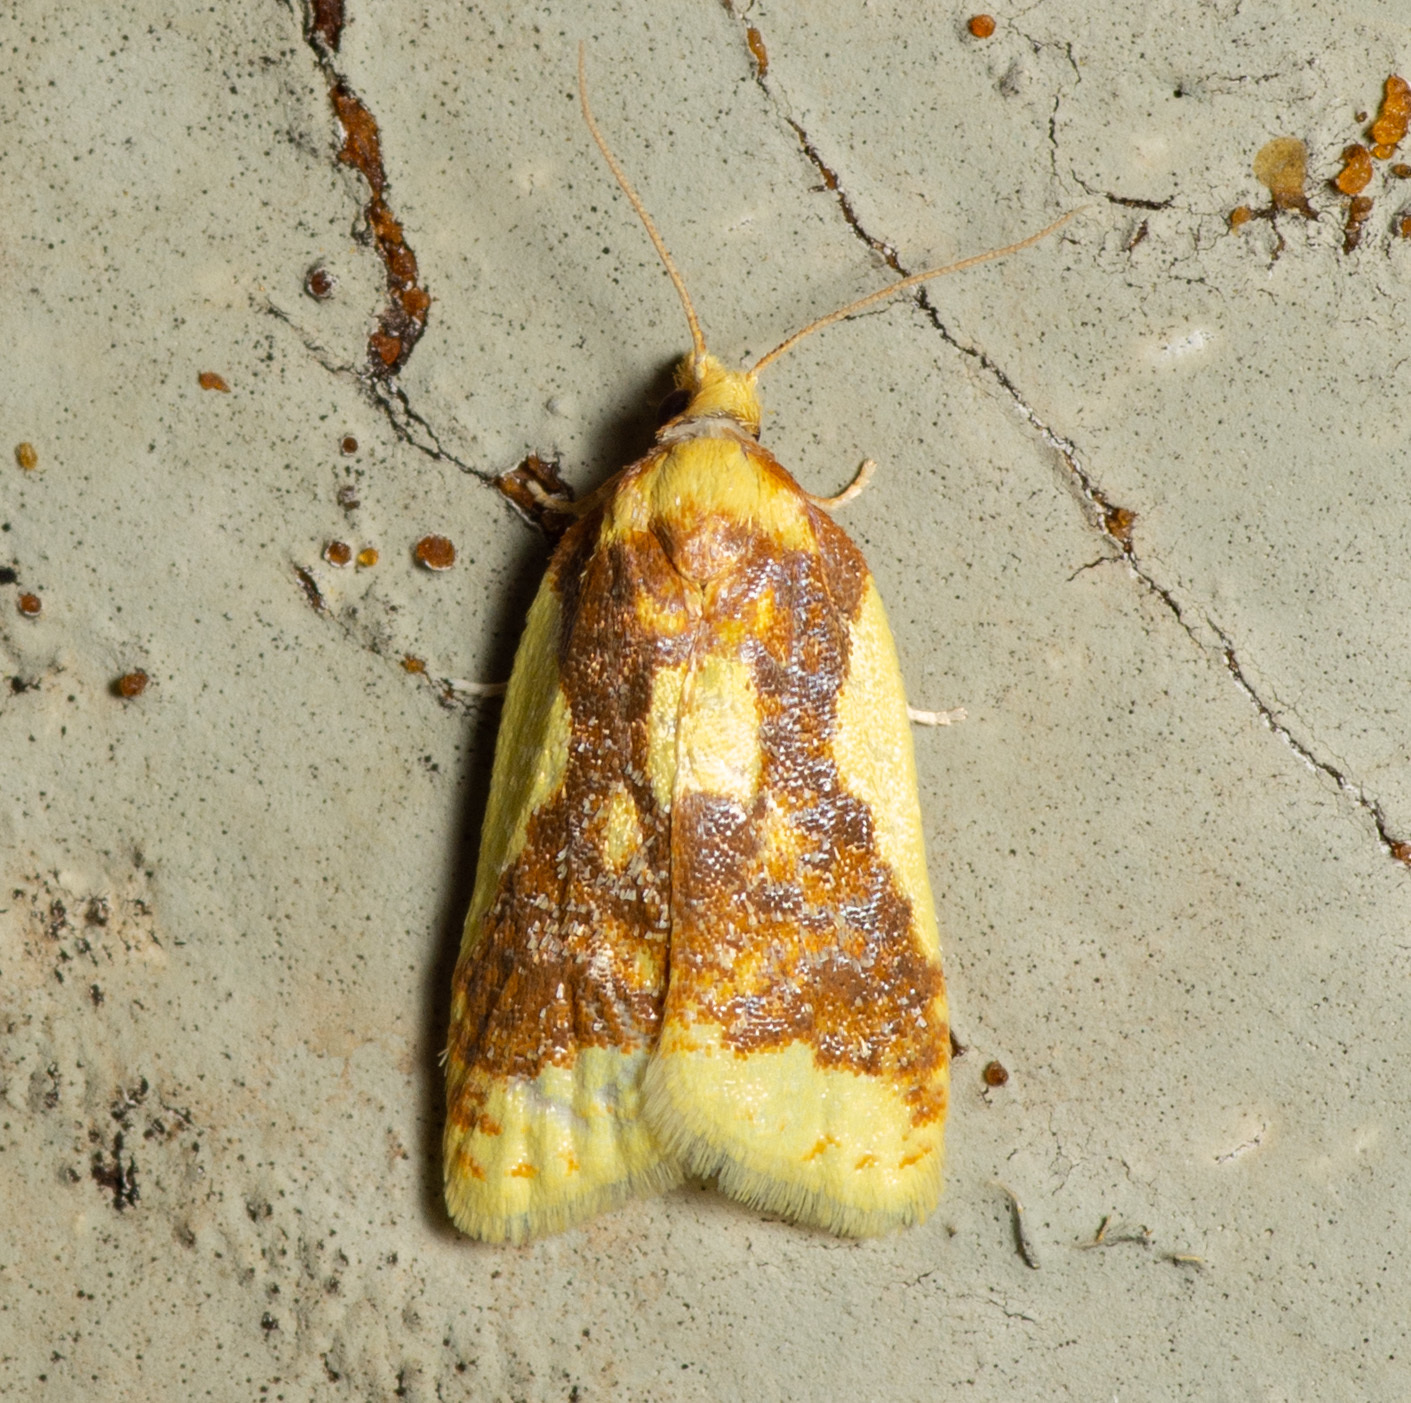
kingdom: Animalia
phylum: Arthropoda
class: Insecta
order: Lepidoptera
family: Tortricidae
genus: Sparganothis
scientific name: Sparganothis pulcherrimana
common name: Beautiful sparganothis
